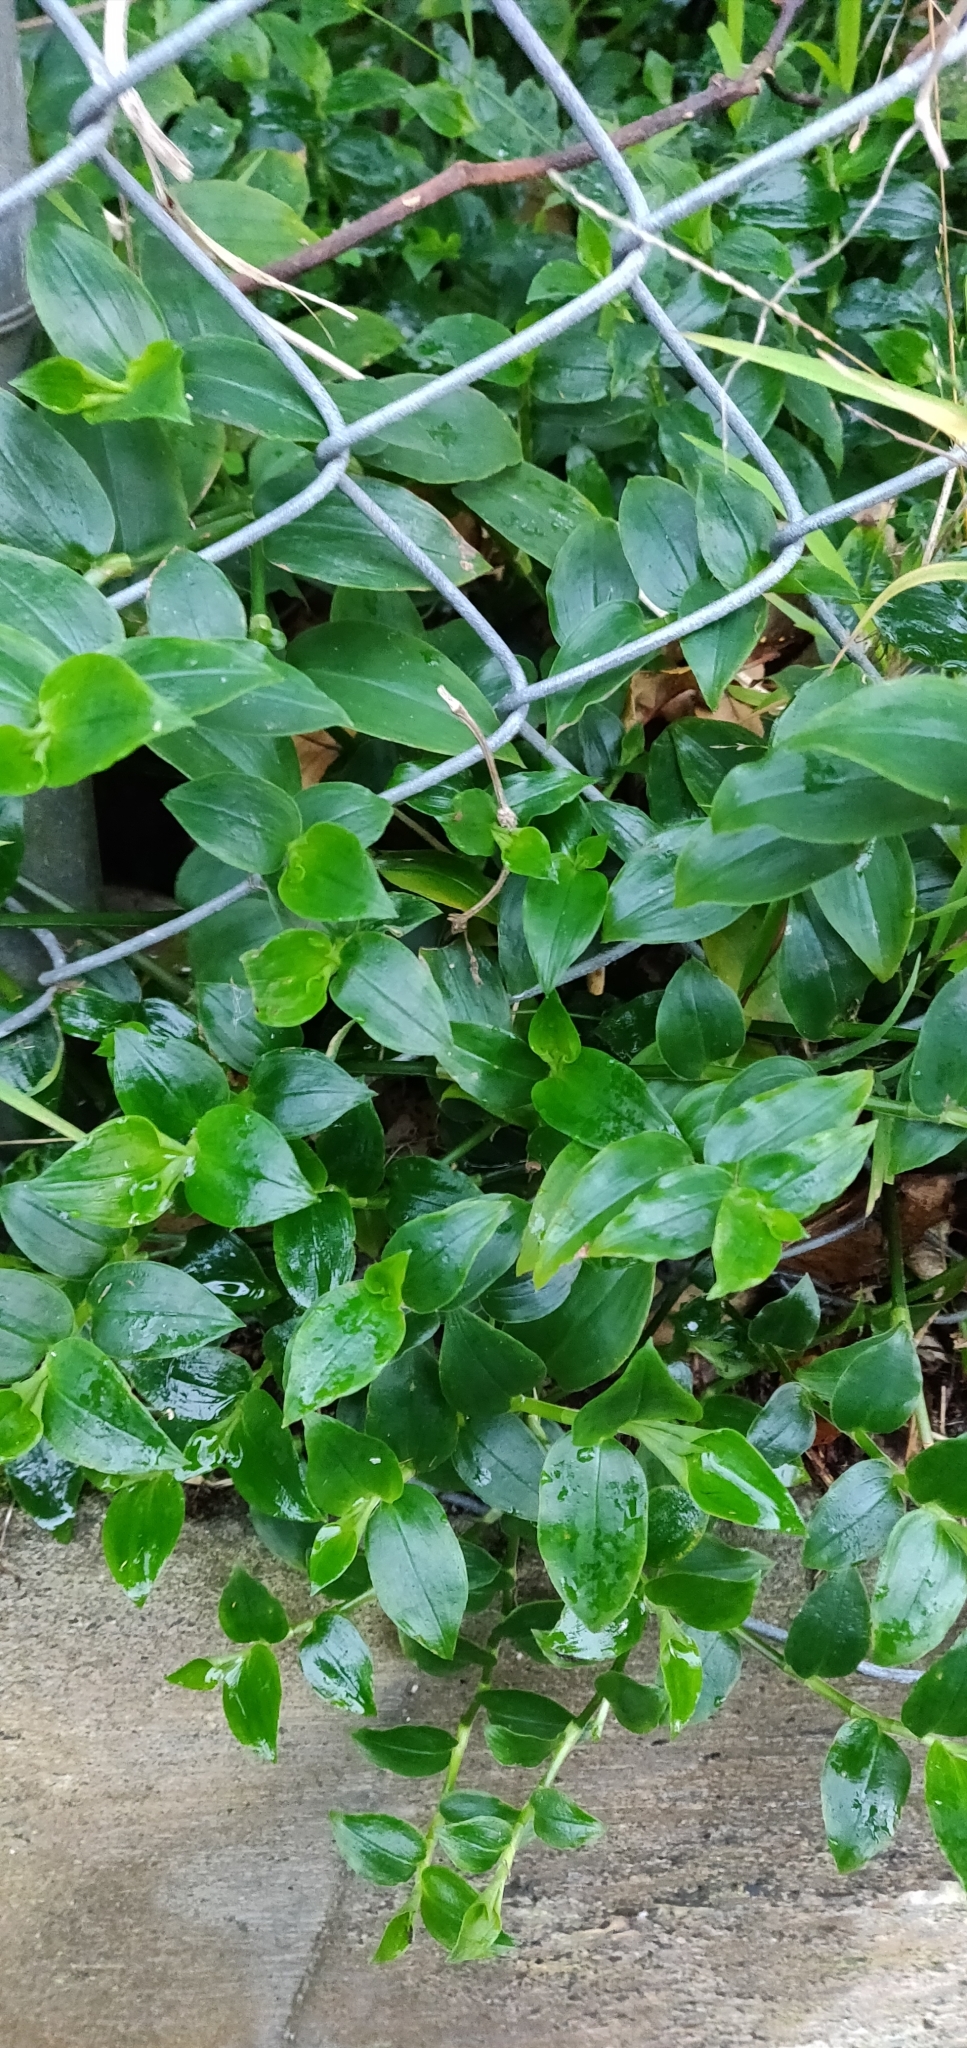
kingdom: Plantae
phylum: Tracheophyta
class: Liliopsida
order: Commelinales
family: Commelinaceae
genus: Tradescantia
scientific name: Tradescantia fluminensis
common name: Wandering-jew
